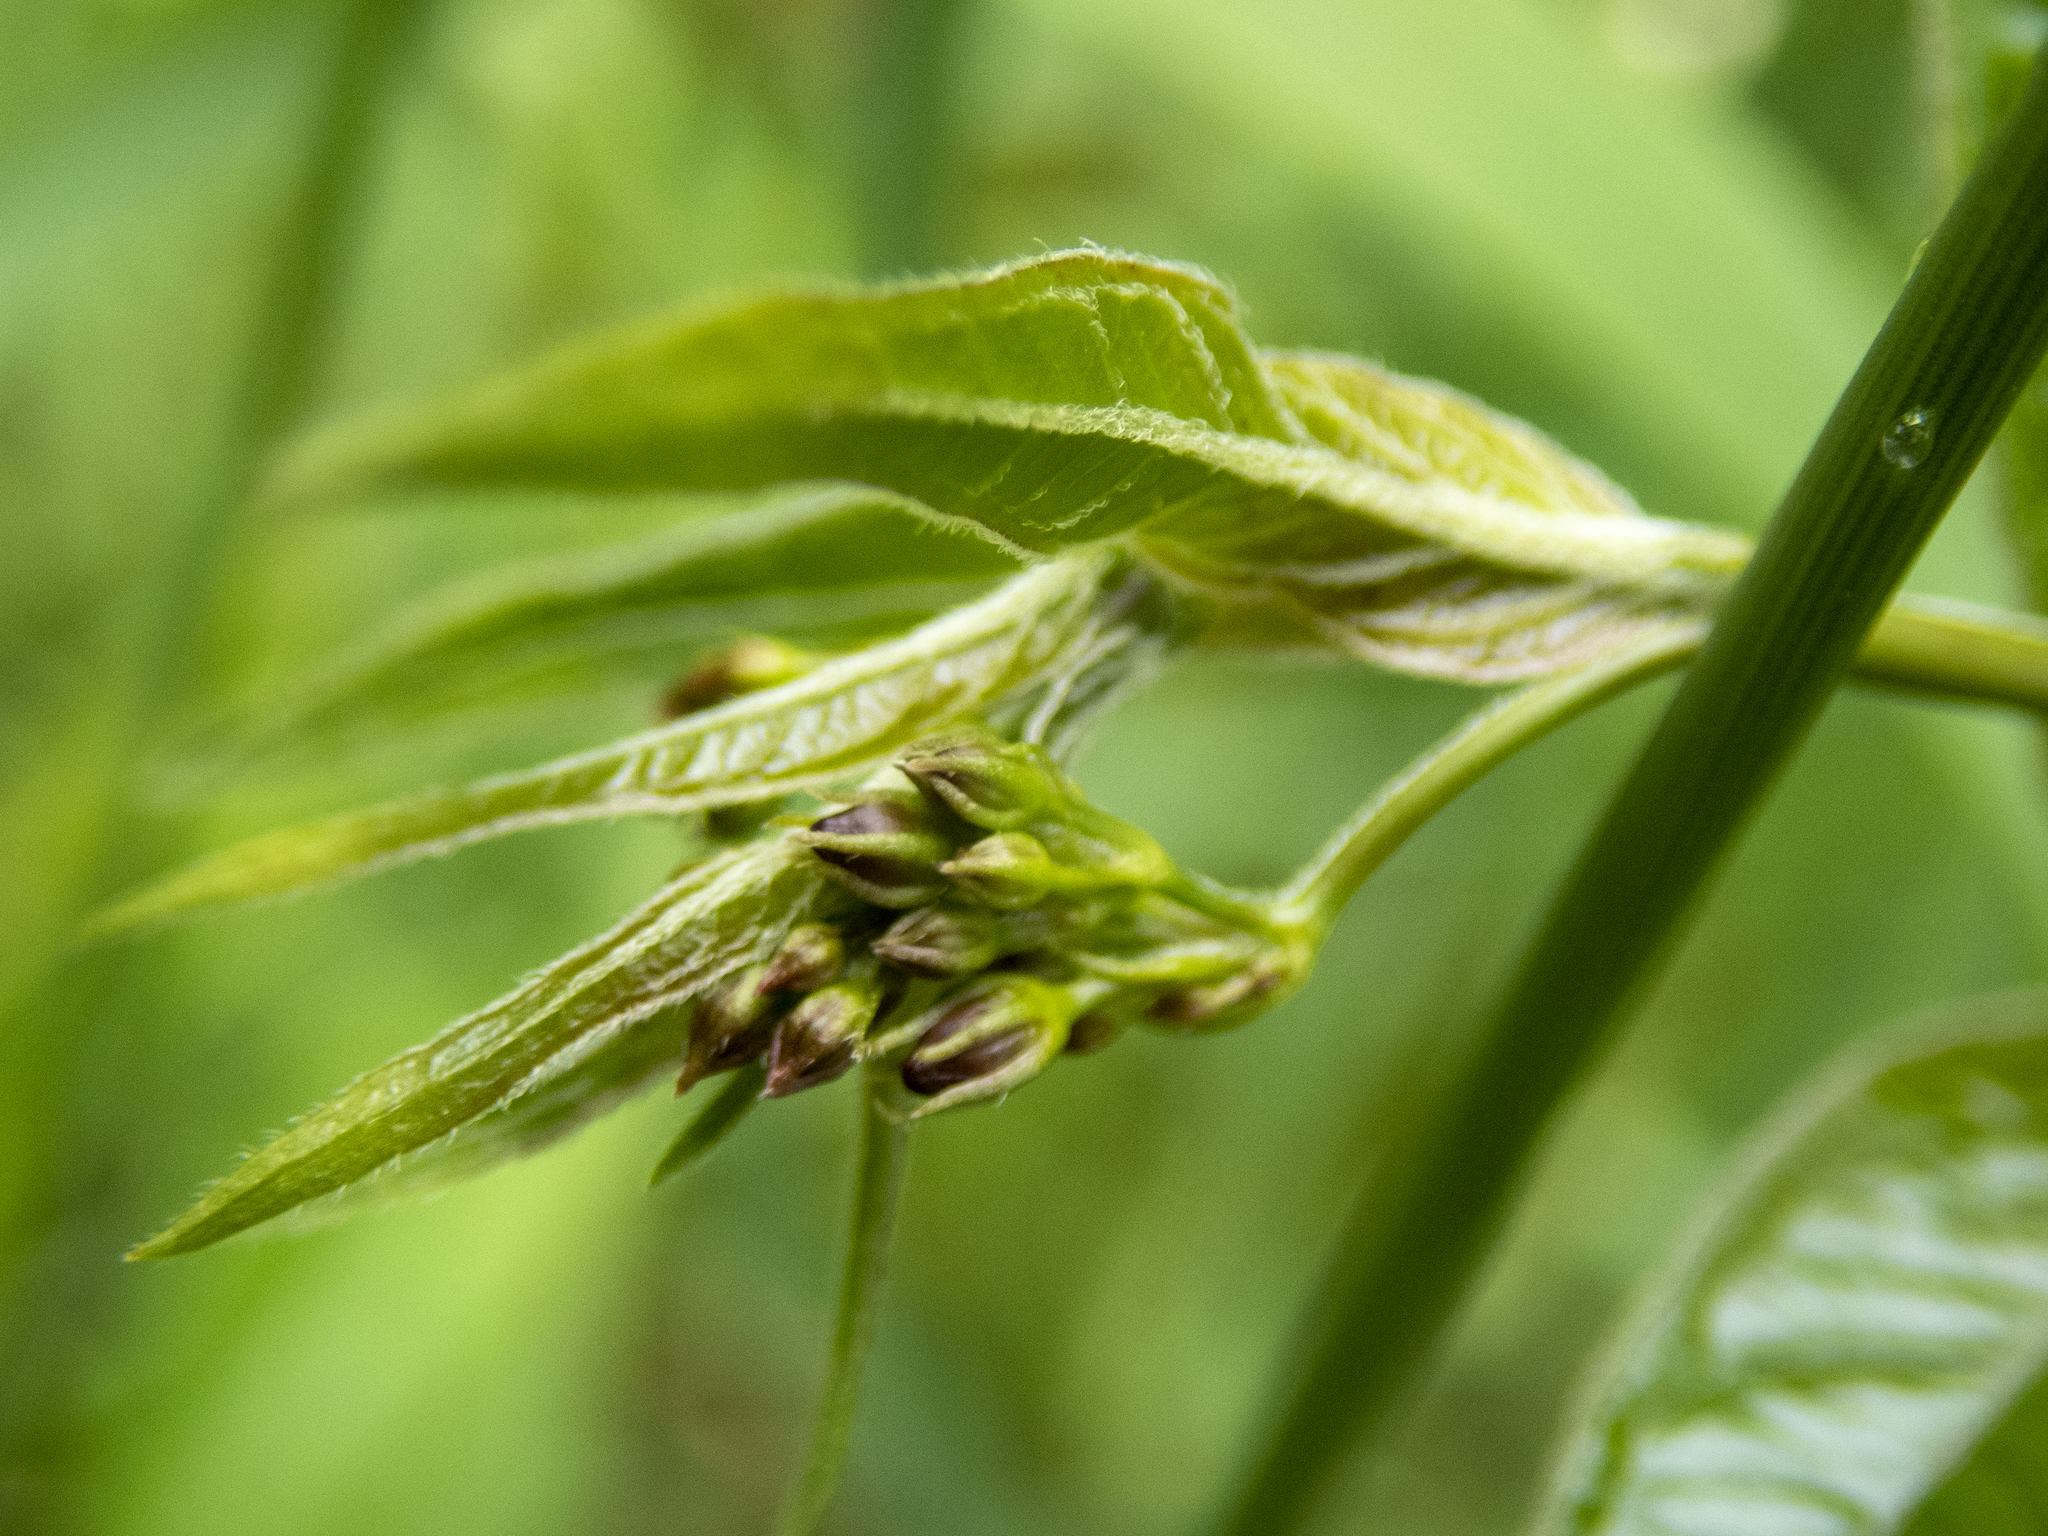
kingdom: Plantae
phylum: Tracheophyta
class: Magnoliopsida
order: Gentianales
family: Apocynaceae
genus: Vincetoxicum
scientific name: Vincetoxicum rossicum
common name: Dog-strangling vine
